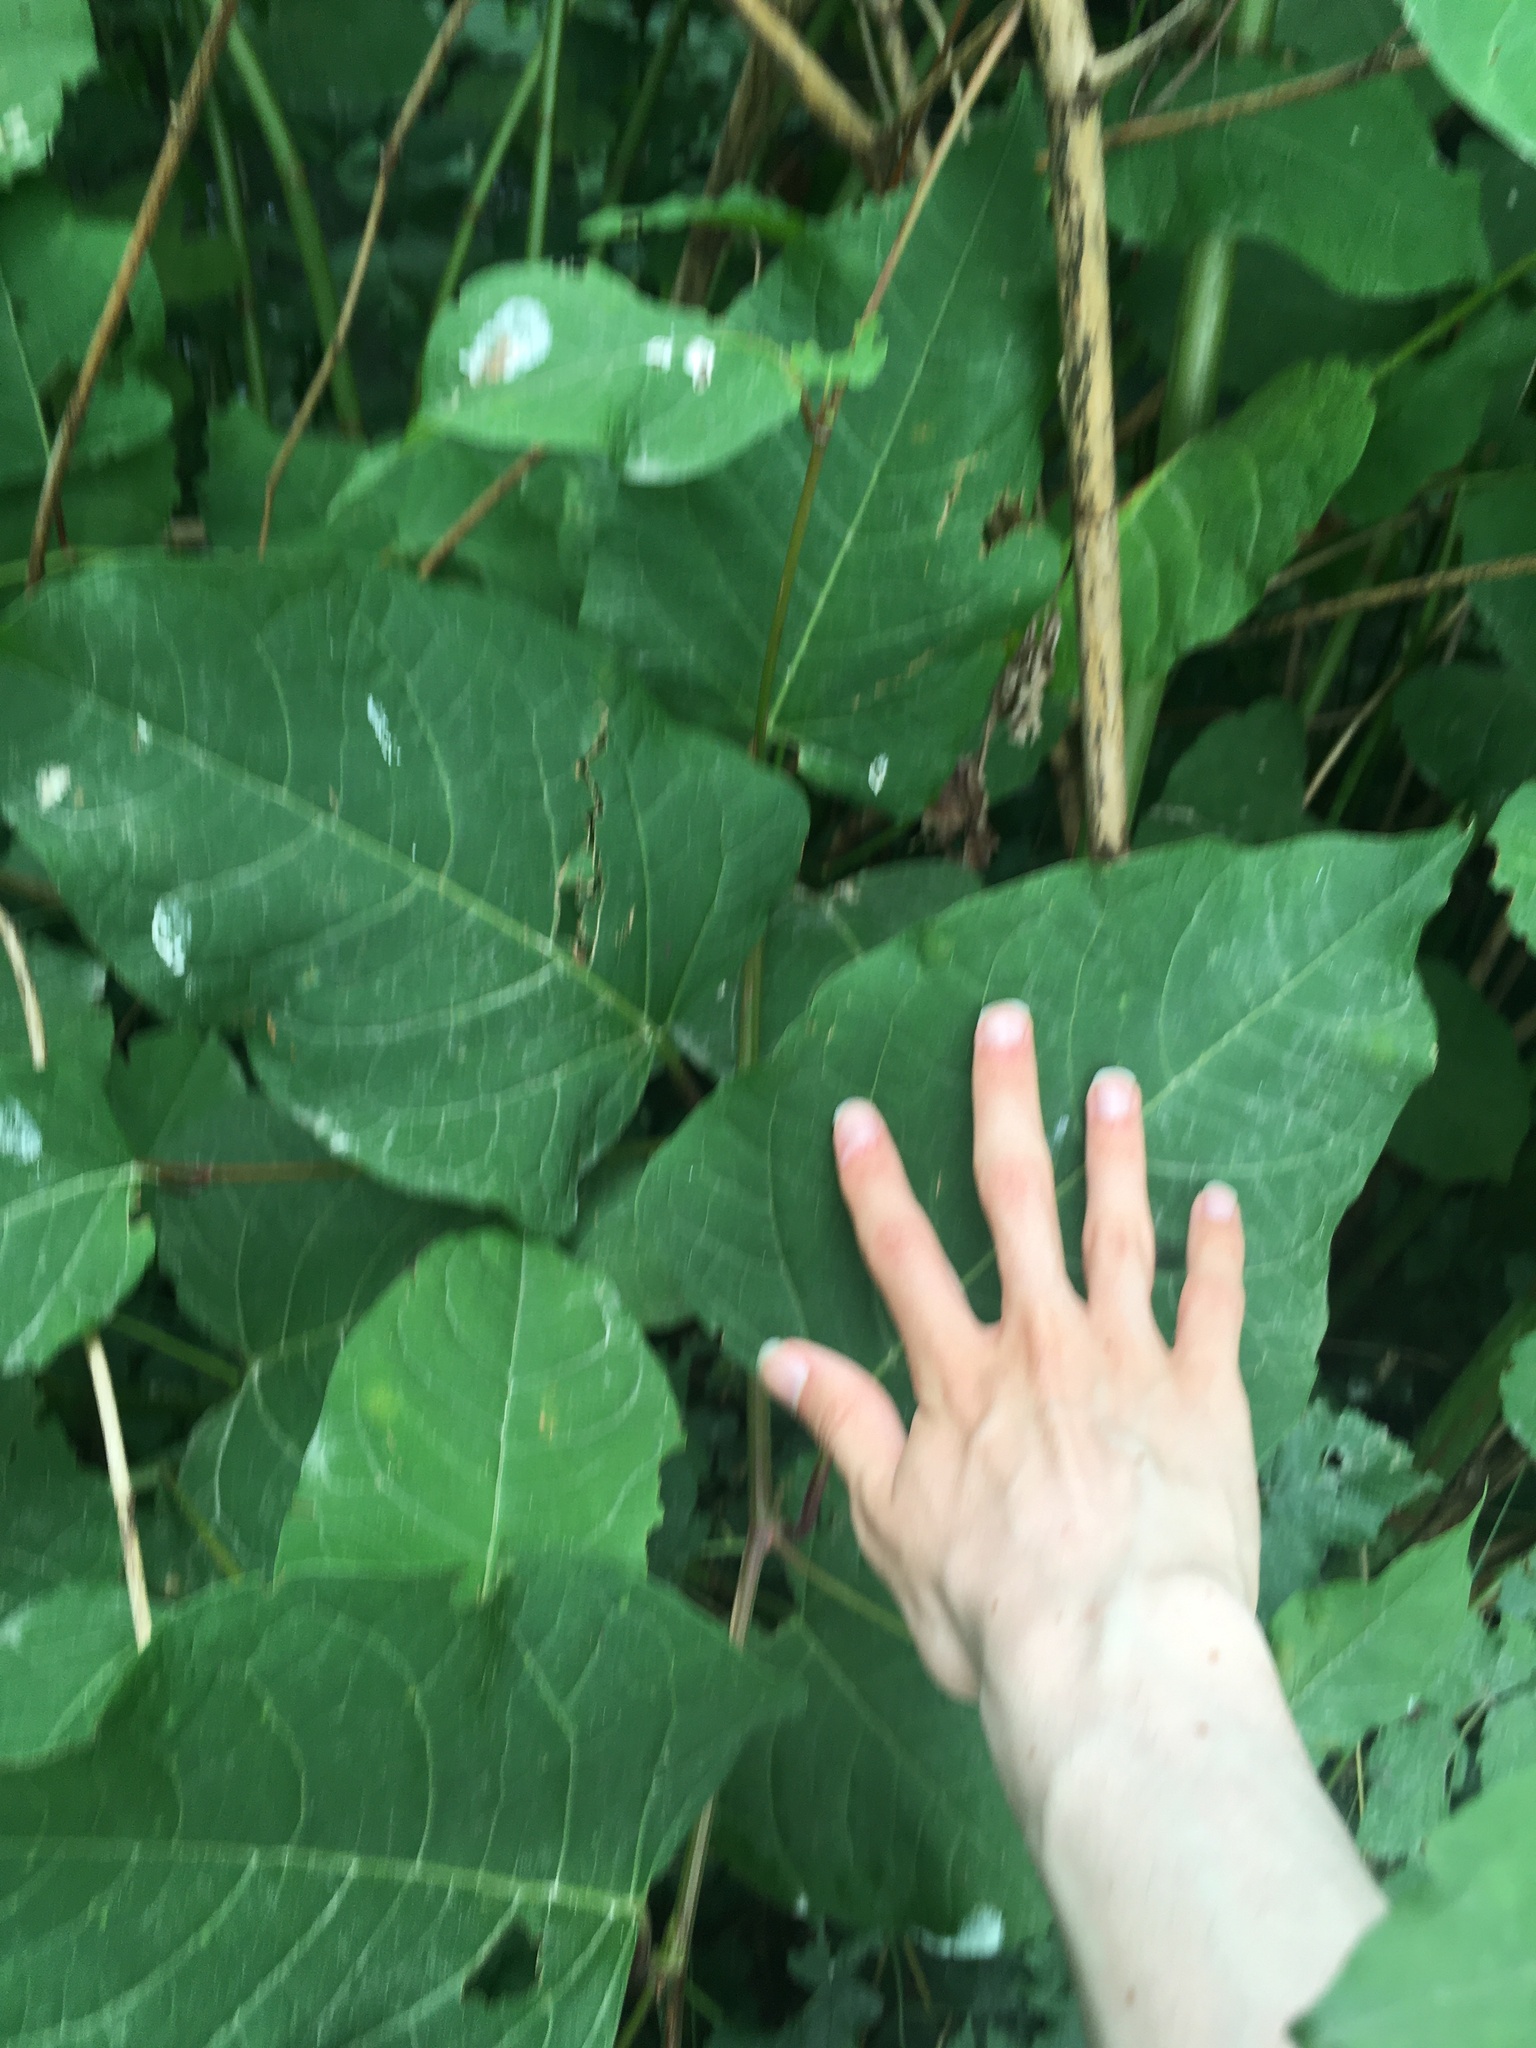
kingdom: Plantae
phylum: Tracheophyta
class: Magnoliopsida
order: Caryophyllales
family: Polygonaceae
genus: Reynoutria
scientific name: Reynoutria bohemica
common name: Bohemian knotweed
